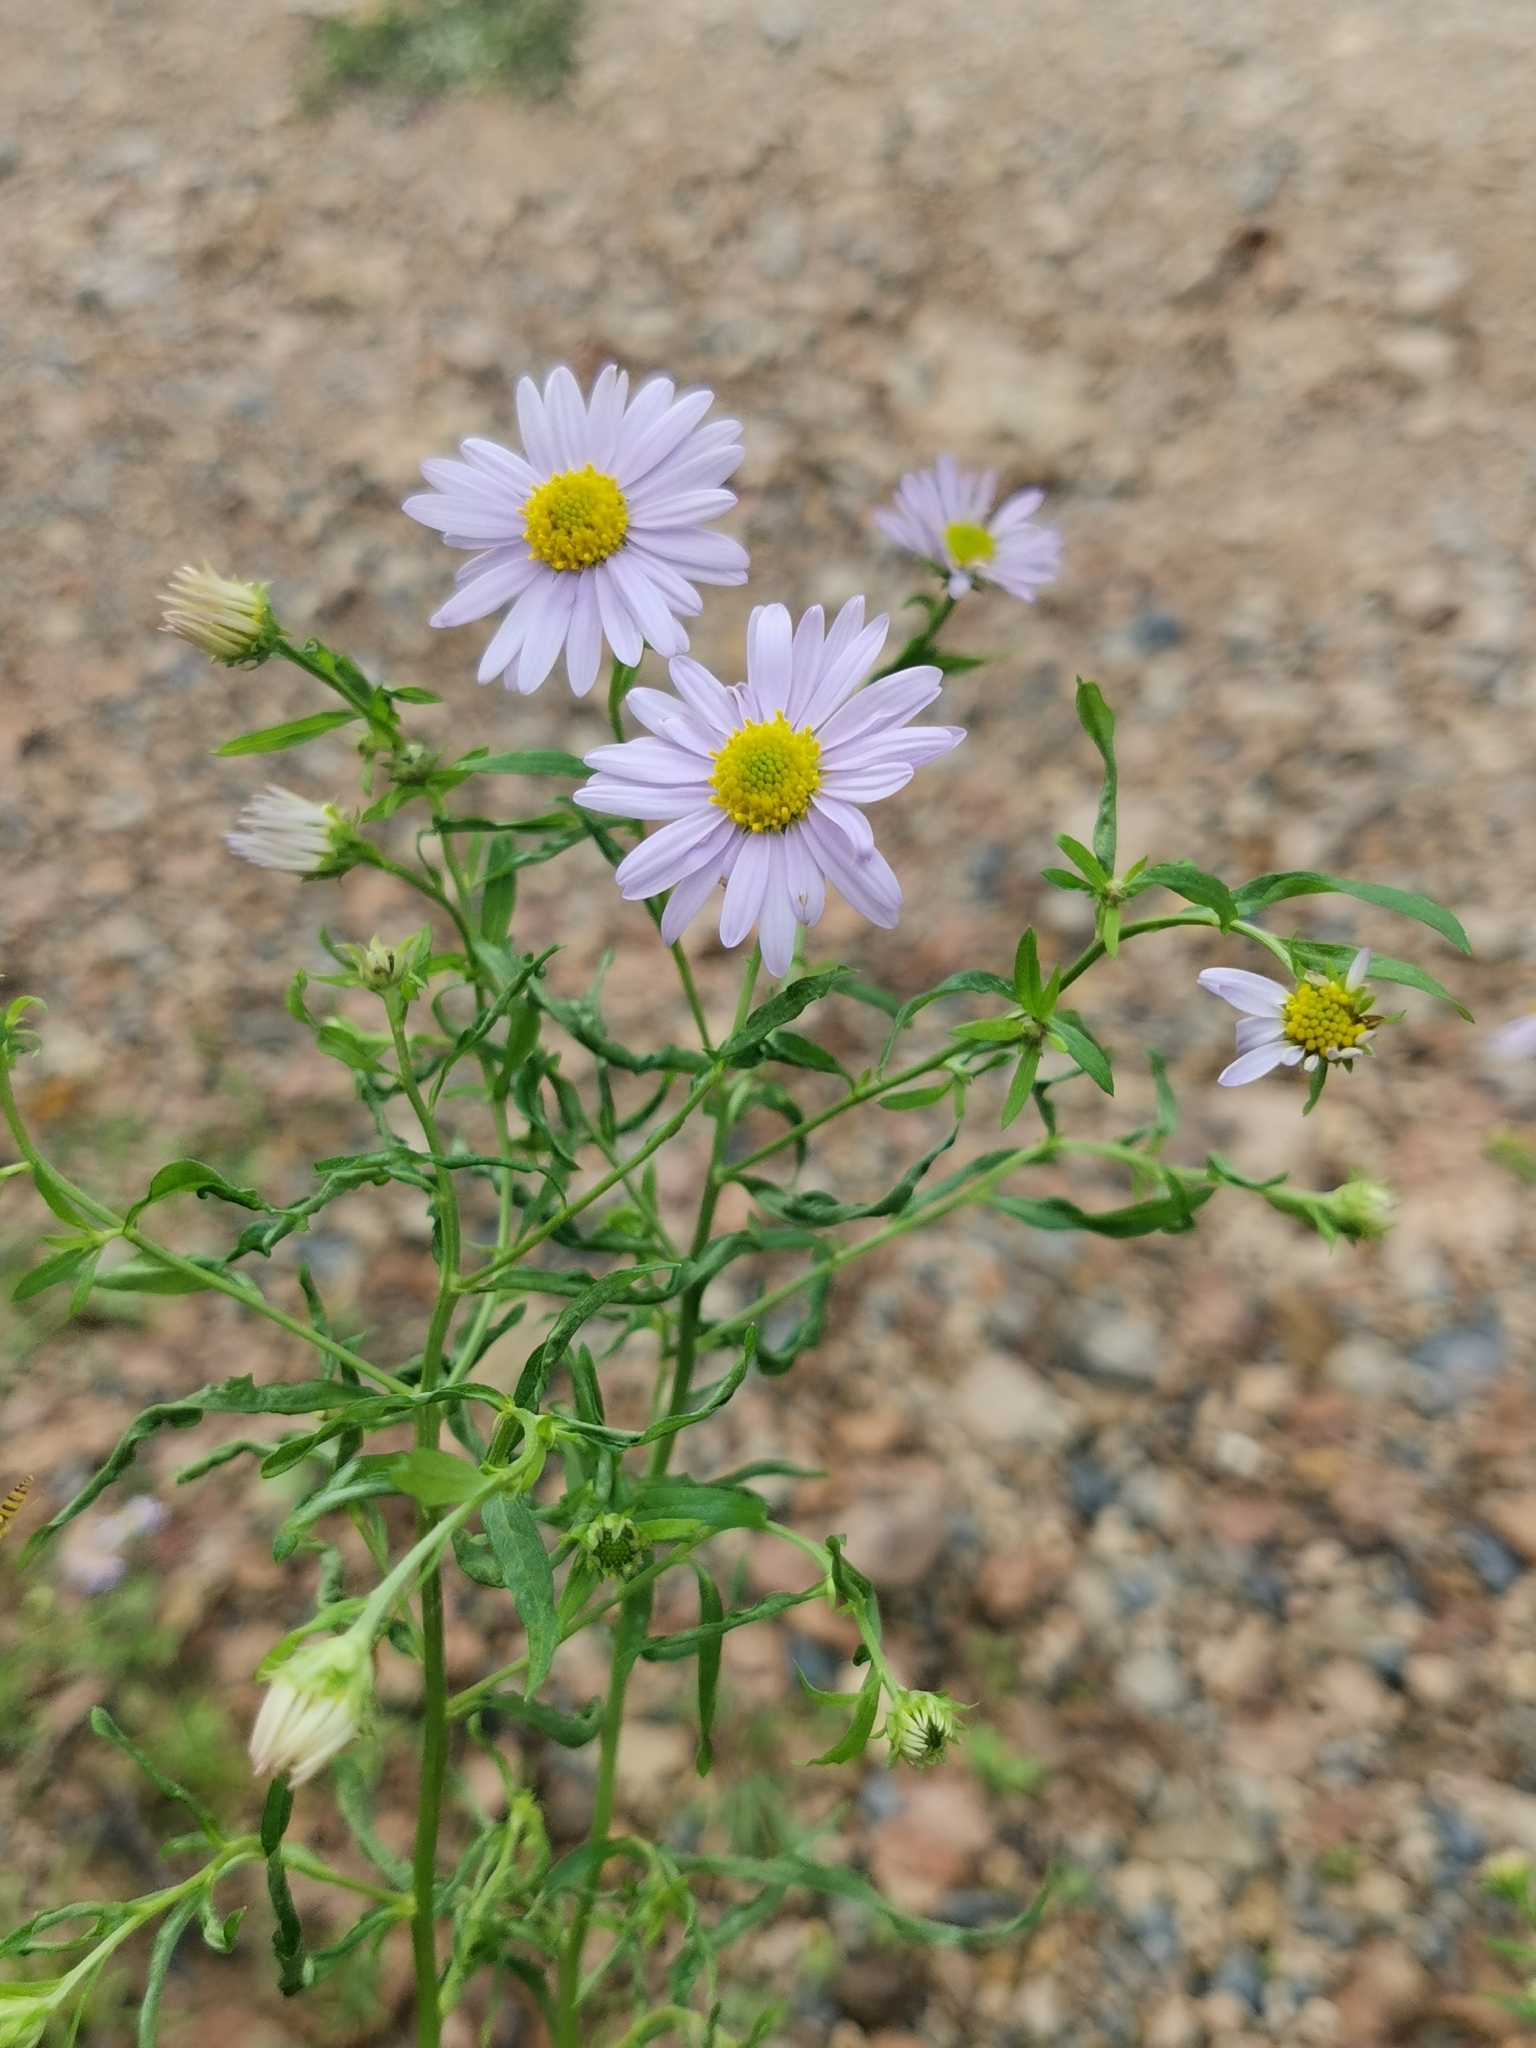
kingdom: Plantae
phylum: Tracheophyta
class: Magnoliopsida
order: Asterales
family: Asteraceae
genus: Aster
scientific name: Aster lautureanus
